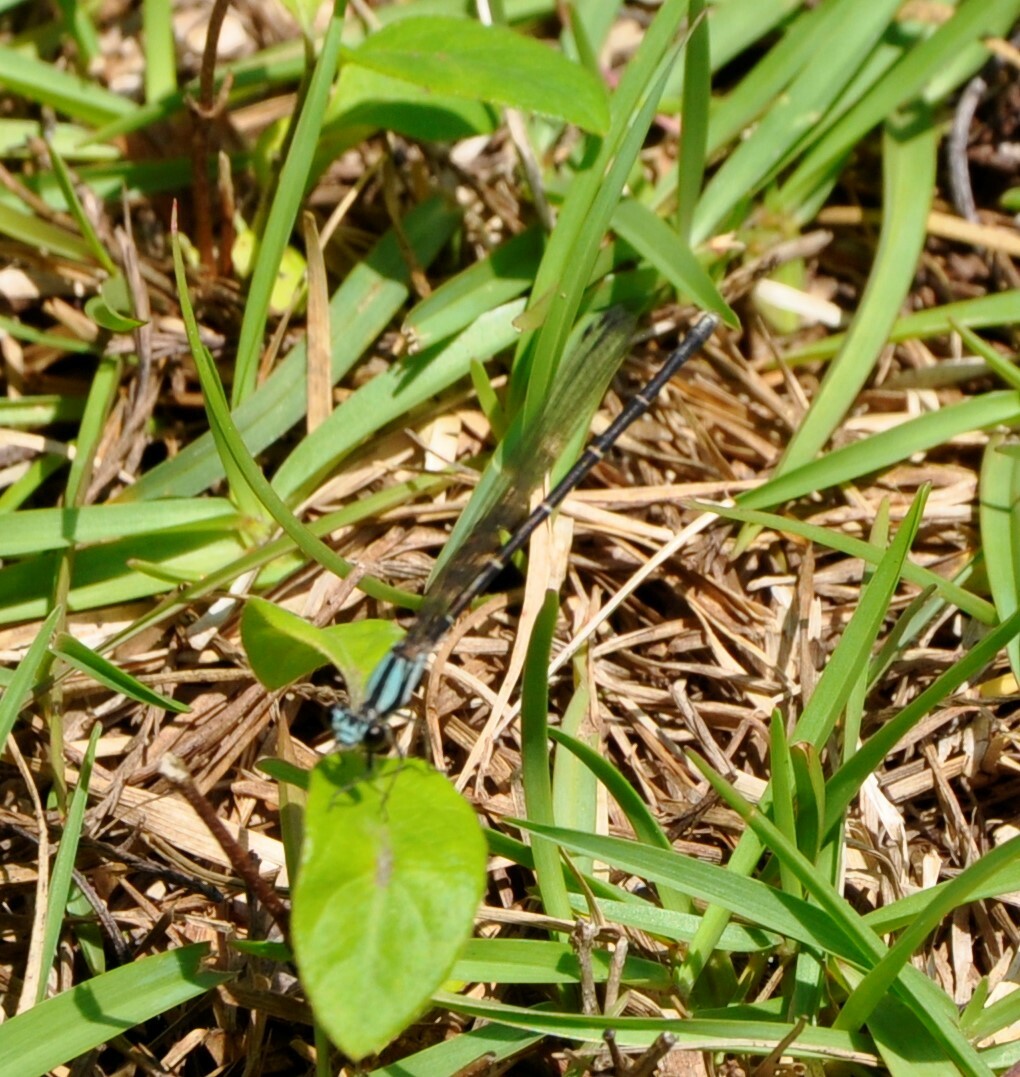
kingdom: Animalia
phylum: Arthropoda
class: Insecta
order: Odonata
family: Coenagrionidae
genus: Argia
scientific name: Argia tibialis
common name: Blue-tipped dancer
